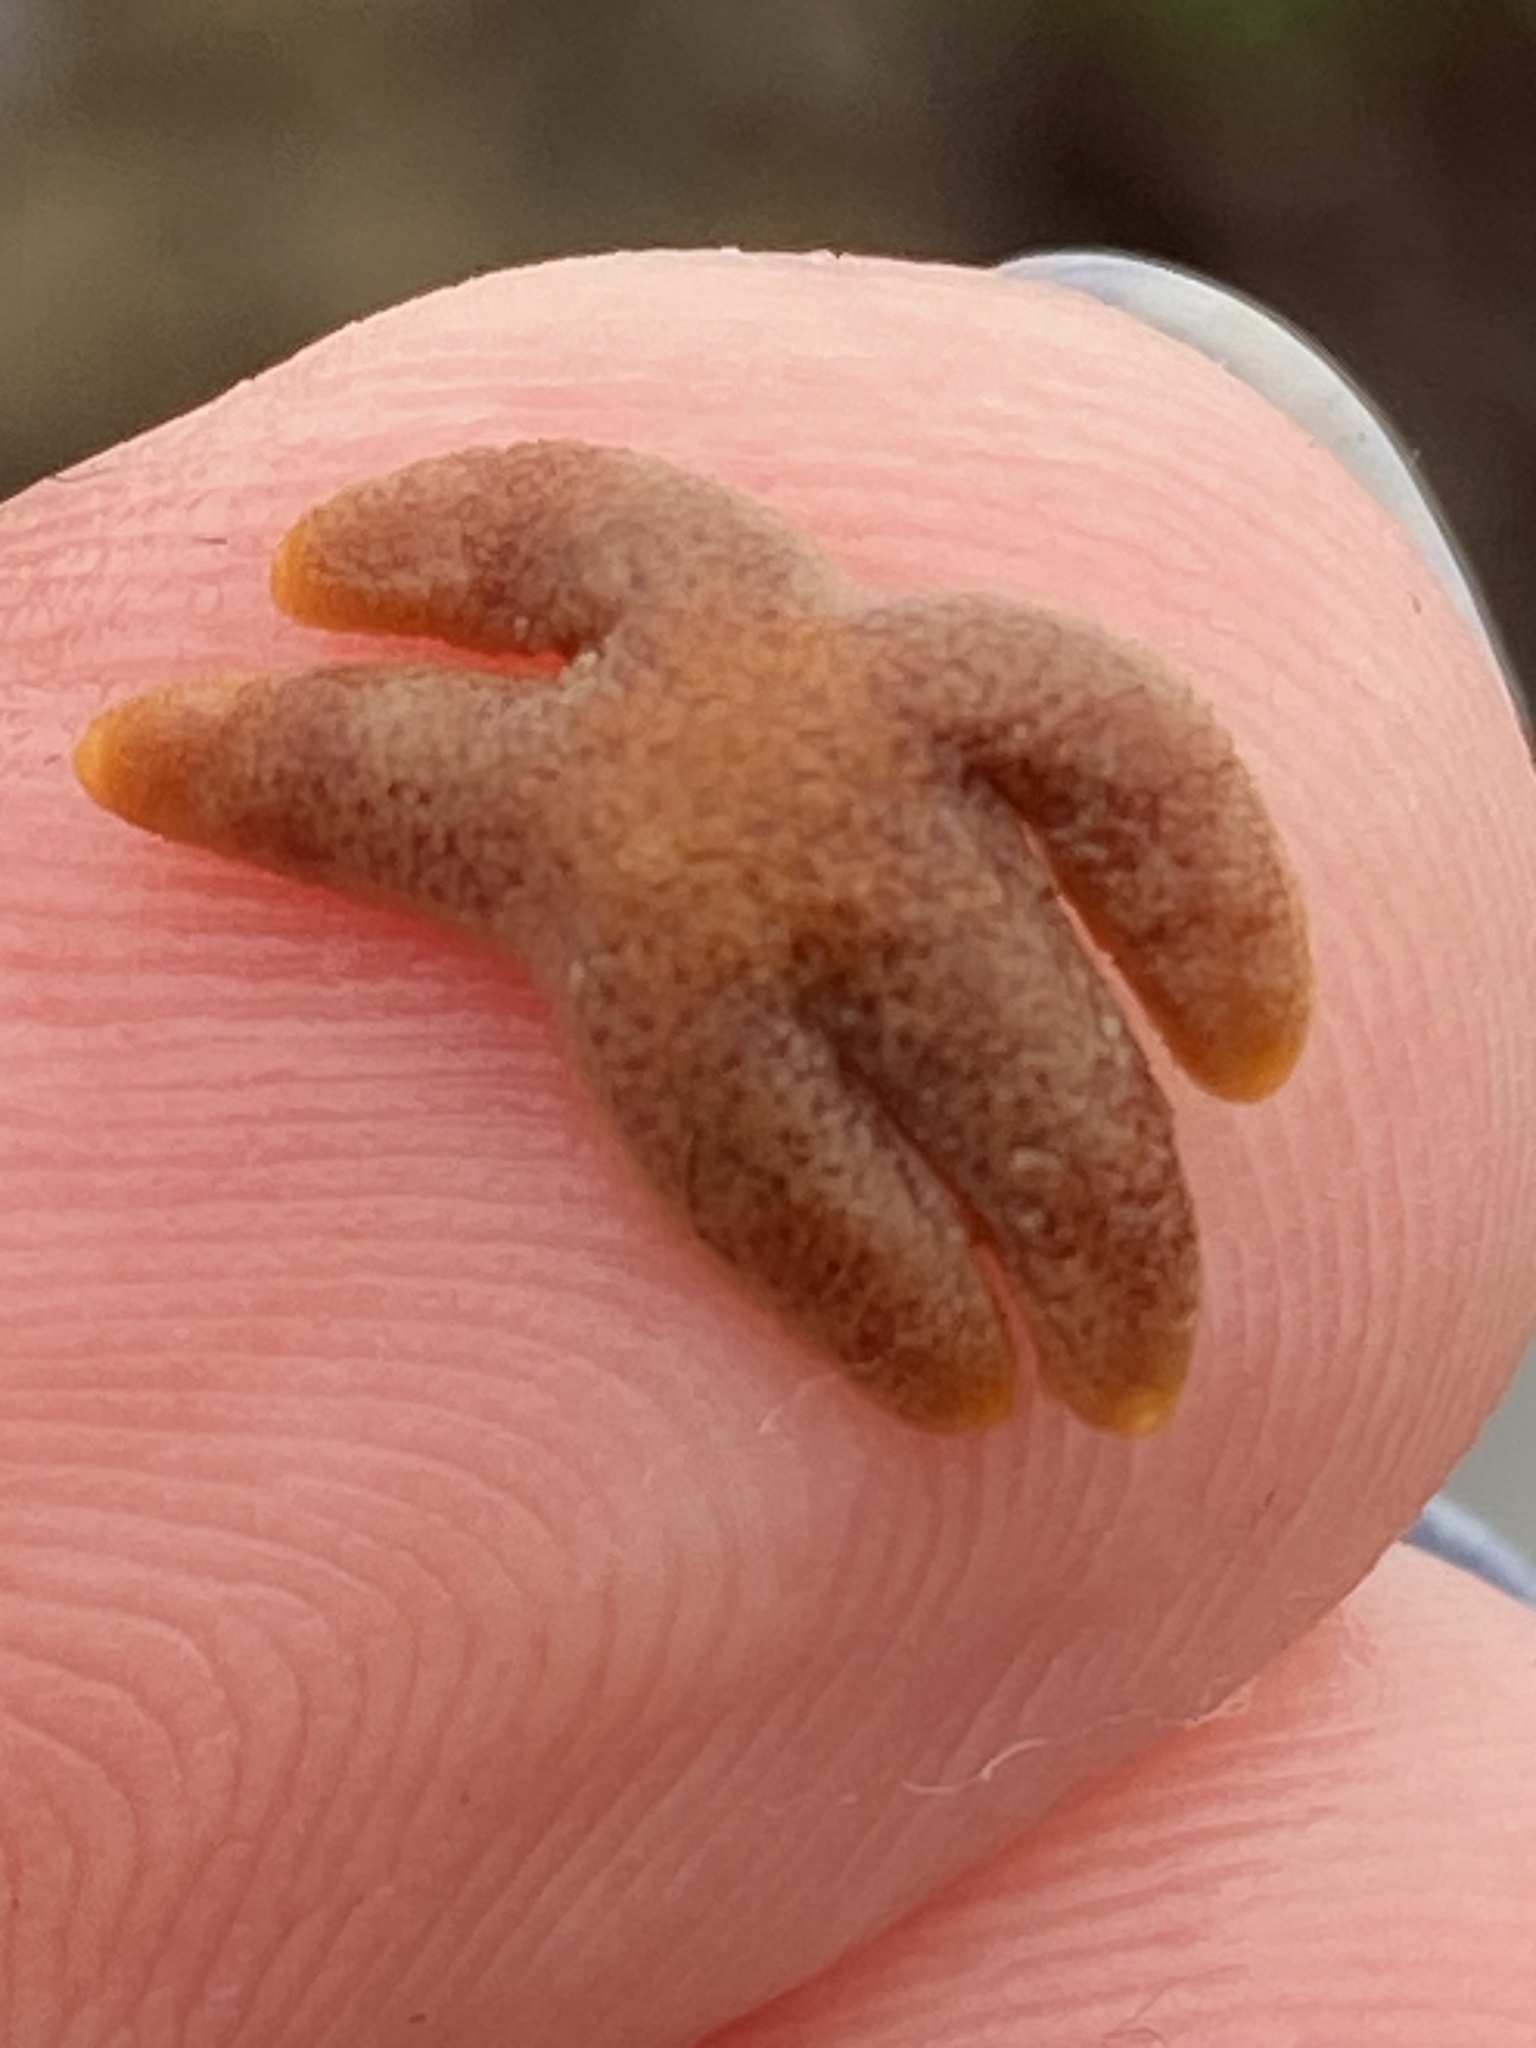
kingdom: Animalia
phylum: Echinodermata
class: Asteroidea
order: Spinulosida
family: Echinasteridae
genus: Henricia
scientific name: Henricia pumila
